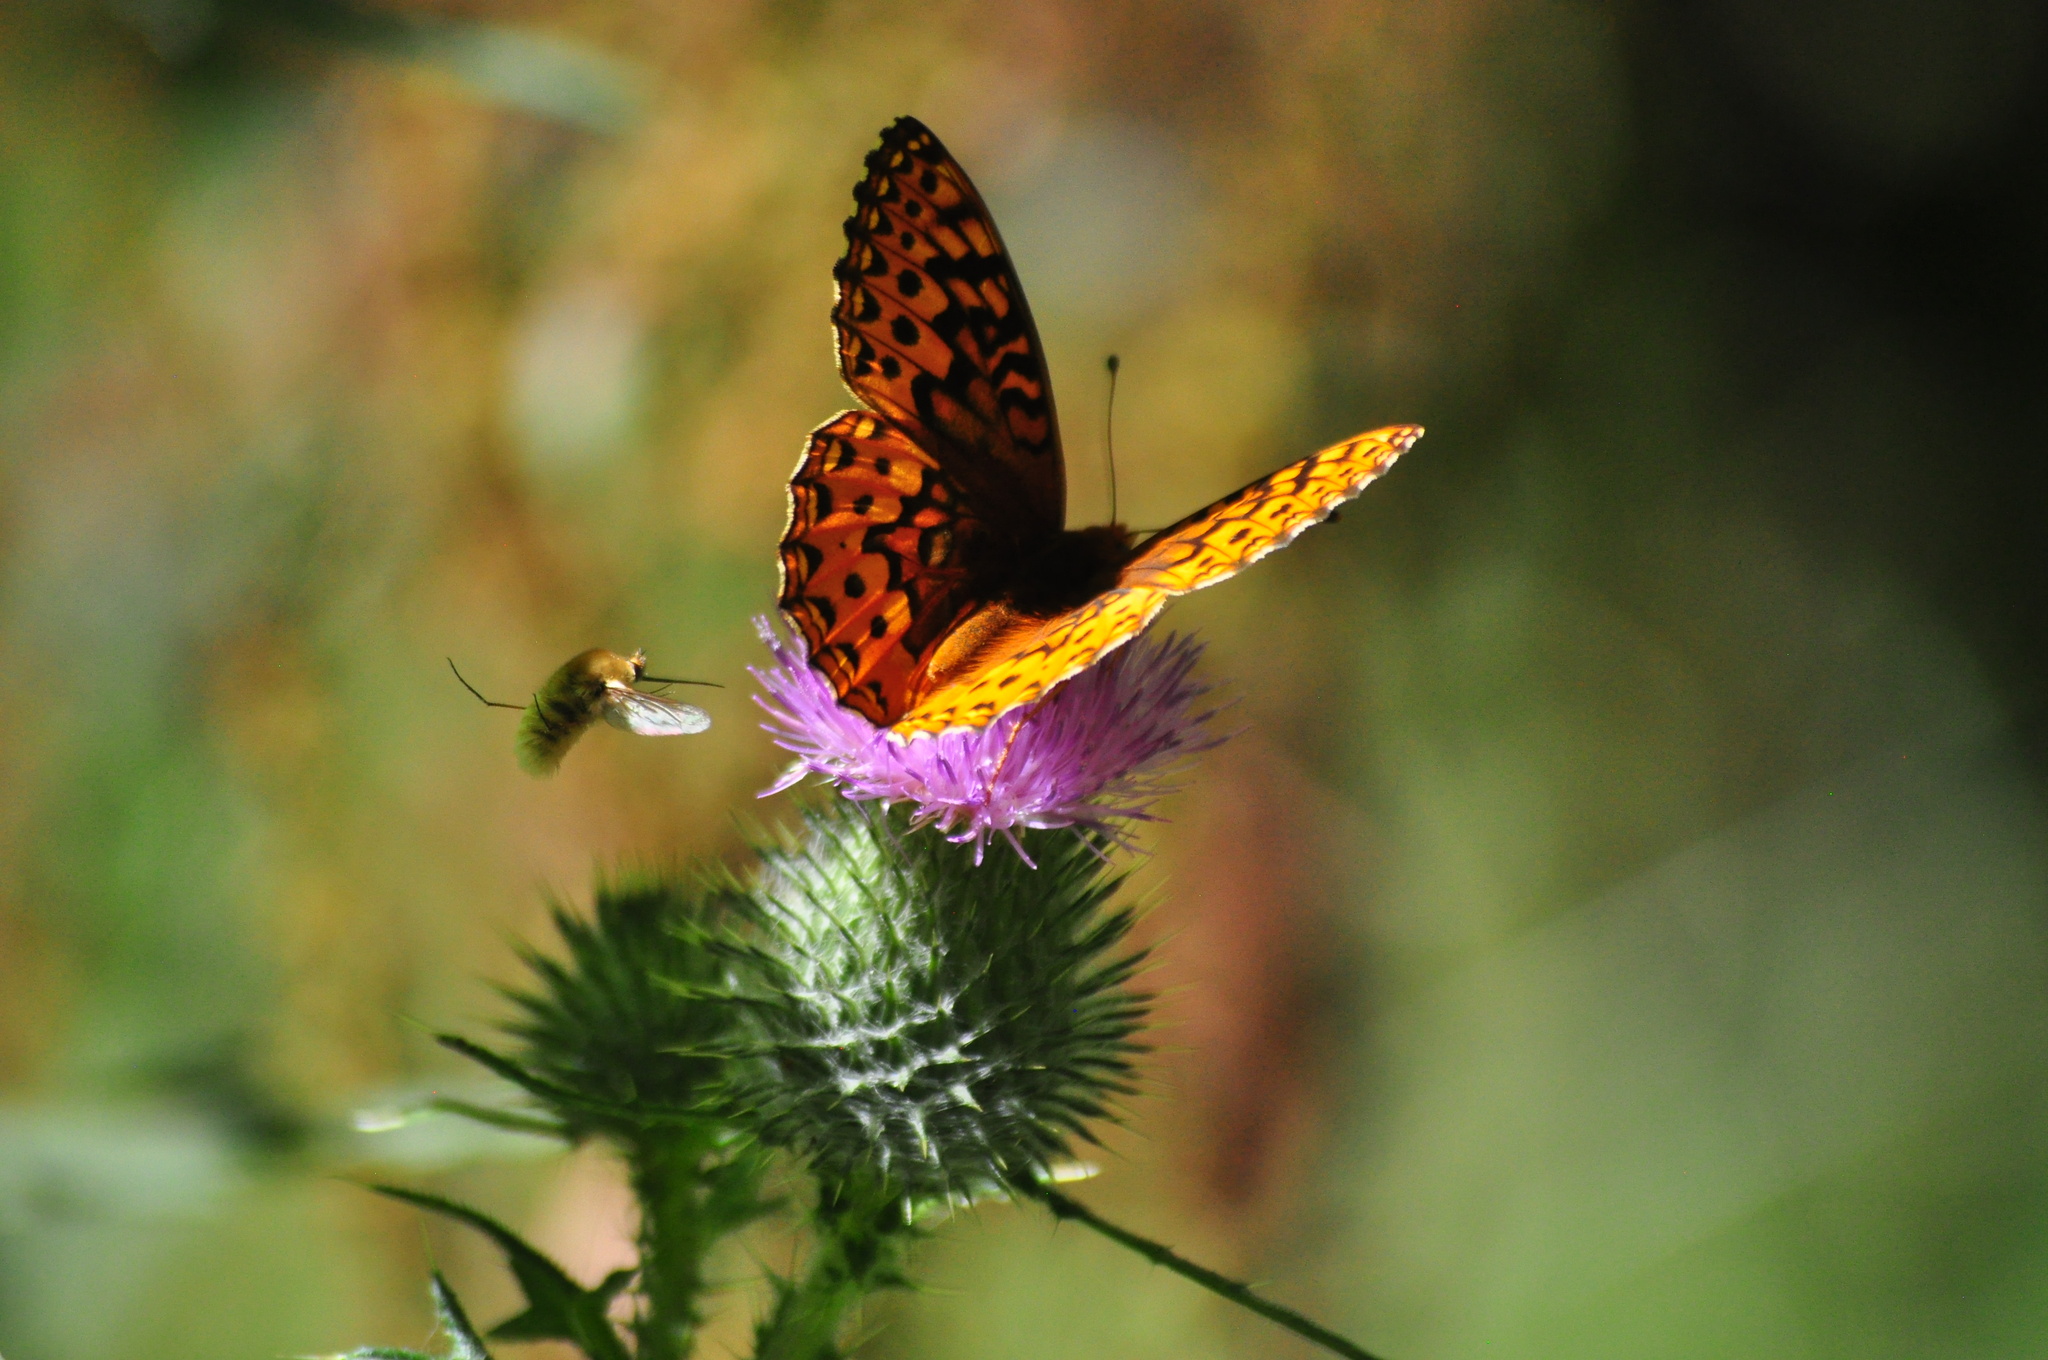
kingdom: Animalia
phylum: Arthropoda
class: Insecta
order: Lepidoptera
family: Nymphalidae
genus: Speyeria
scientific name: Speyeria hydaspe
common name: Hydaspe fritillary
